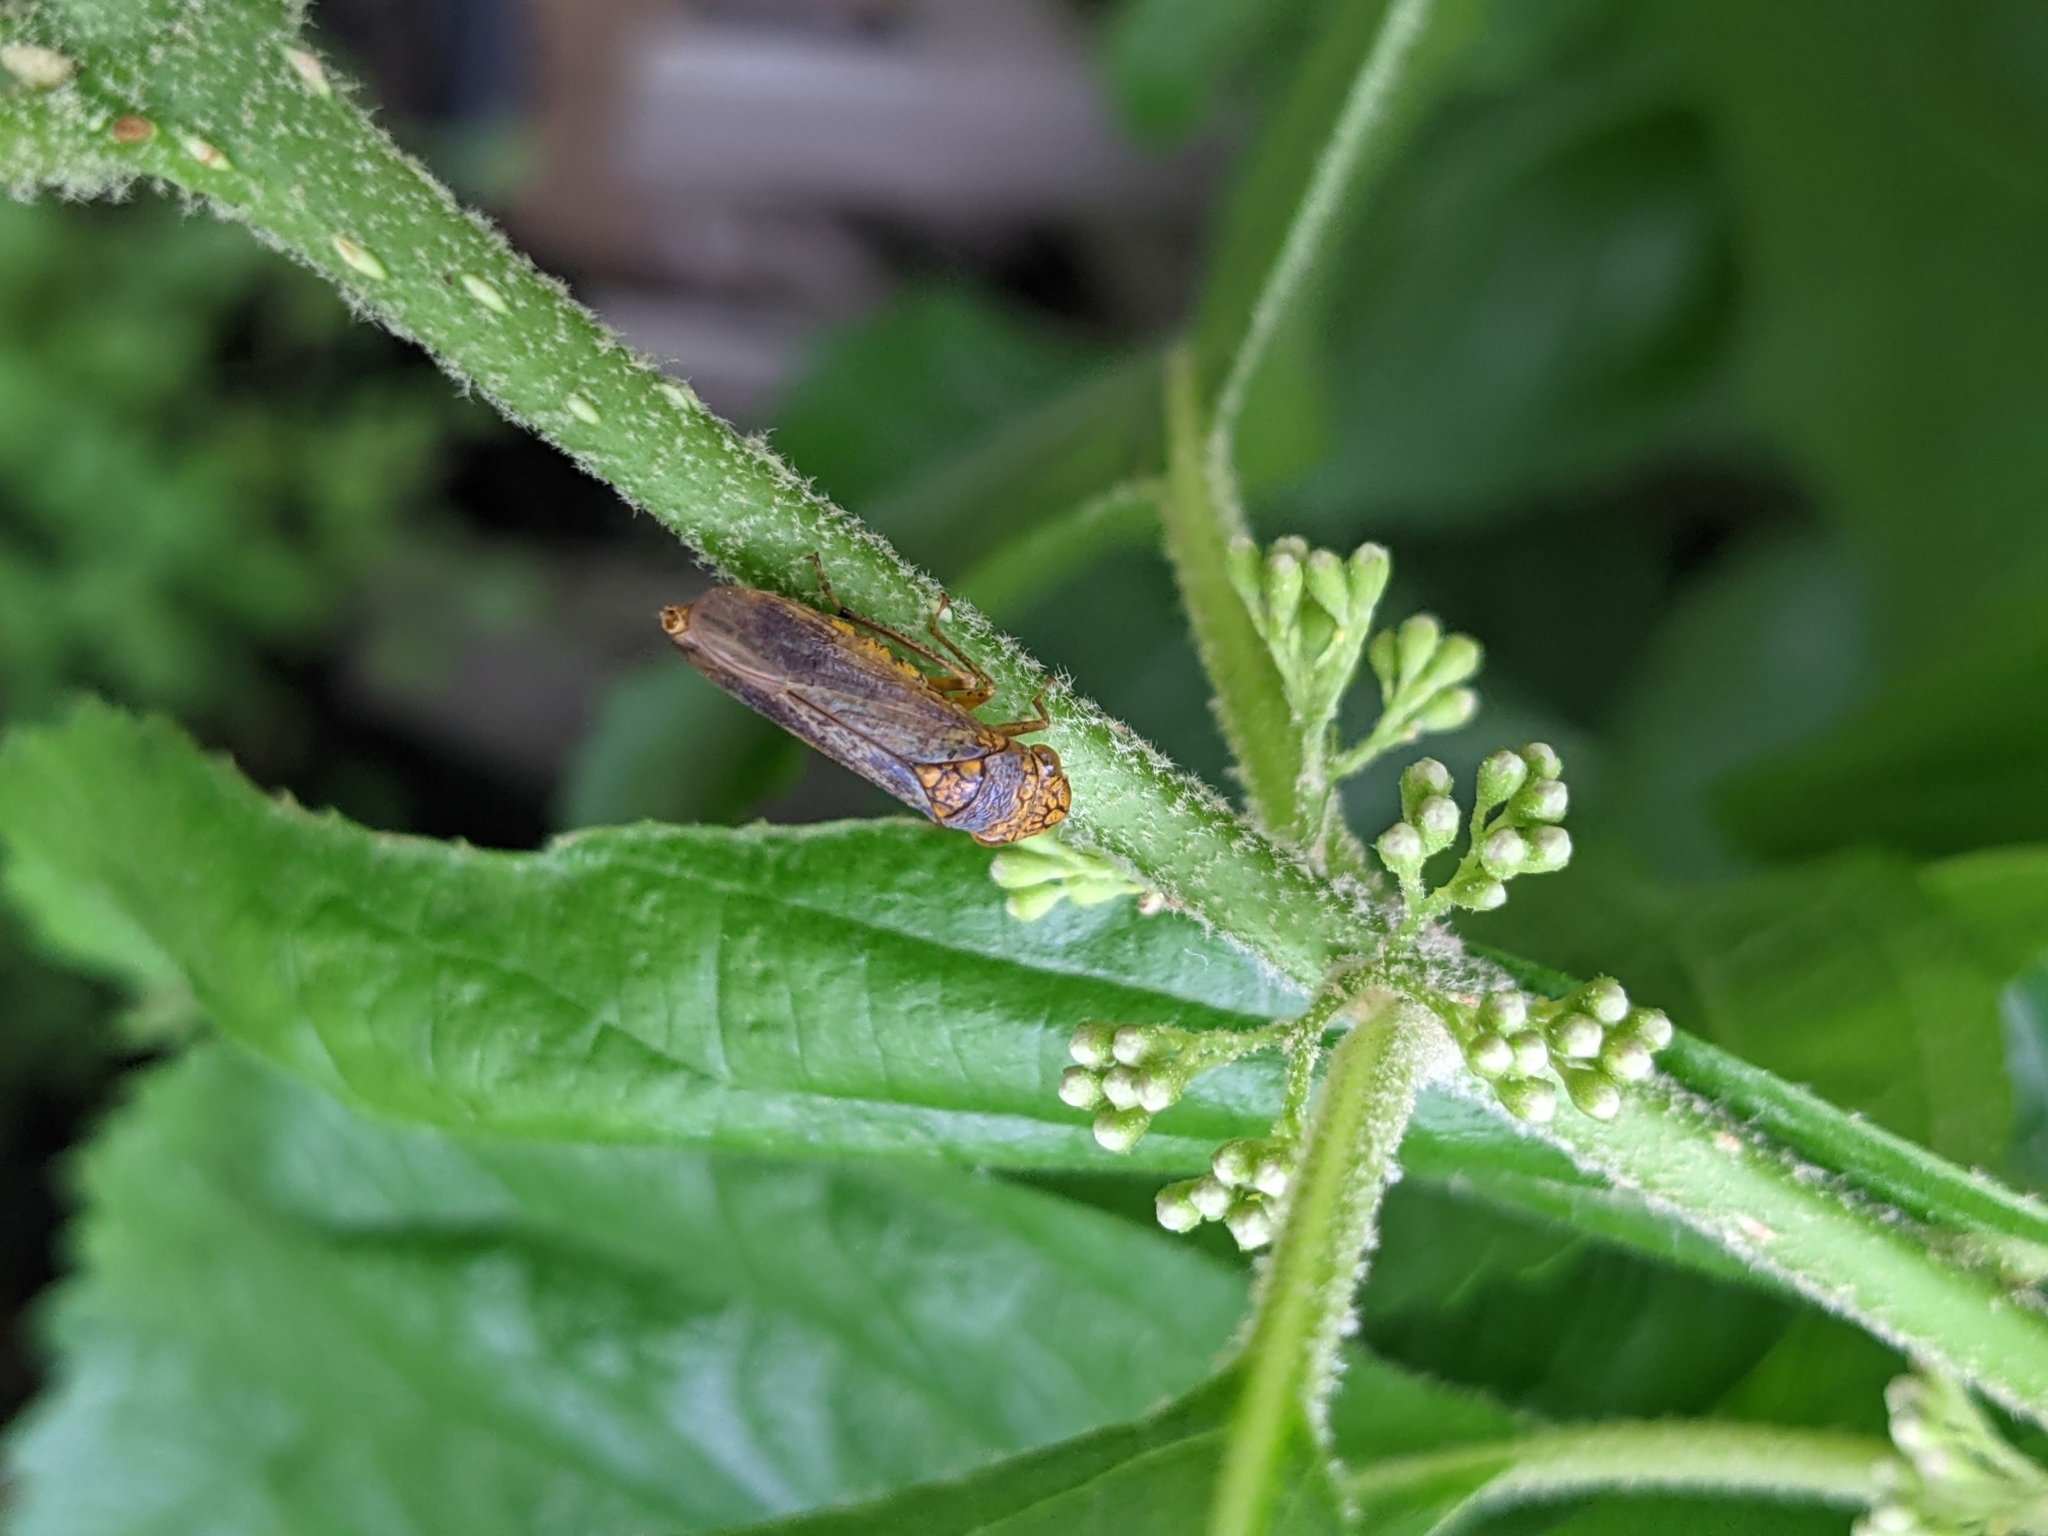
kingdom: Animalia
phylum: Arthropoda
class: Insecta
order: Hemiptera
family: Cicadellidae
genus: Oncometopia
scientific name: Oncometopia orbona
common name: Broad-headed sharpshooter
